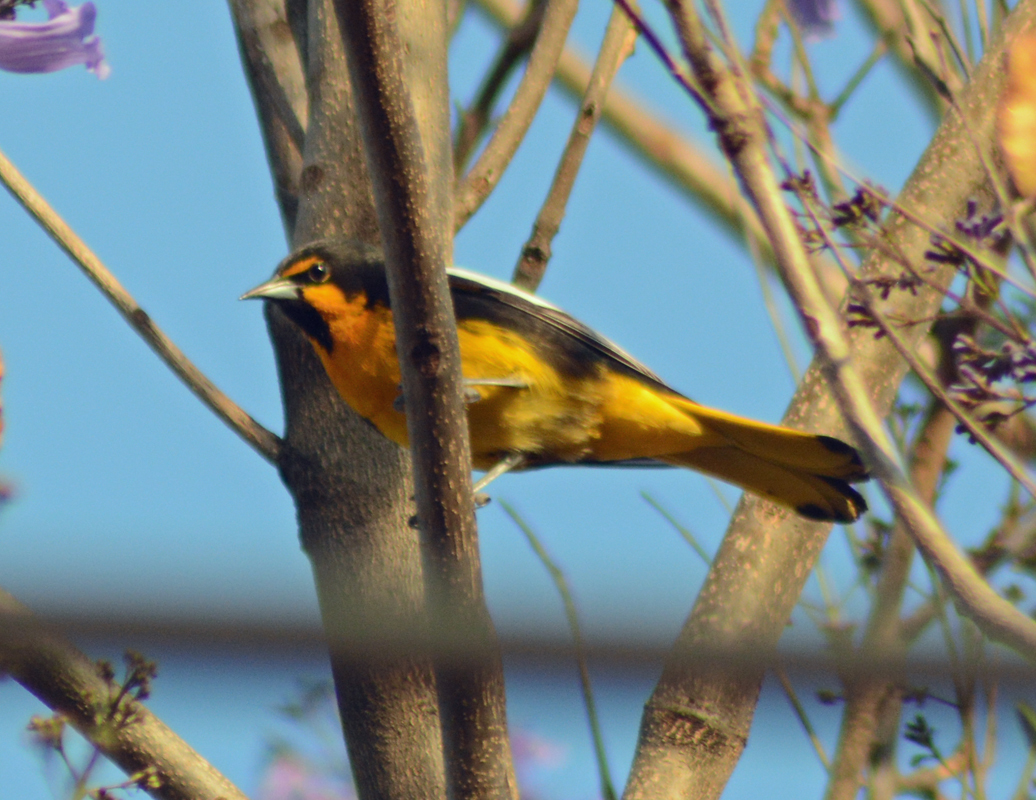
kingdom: Animalia
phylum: Chordata
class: Aves
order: Passeriformes
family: Icteridae
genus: Icterus
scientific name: Icterus abeillei
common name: Black-backed oriole
